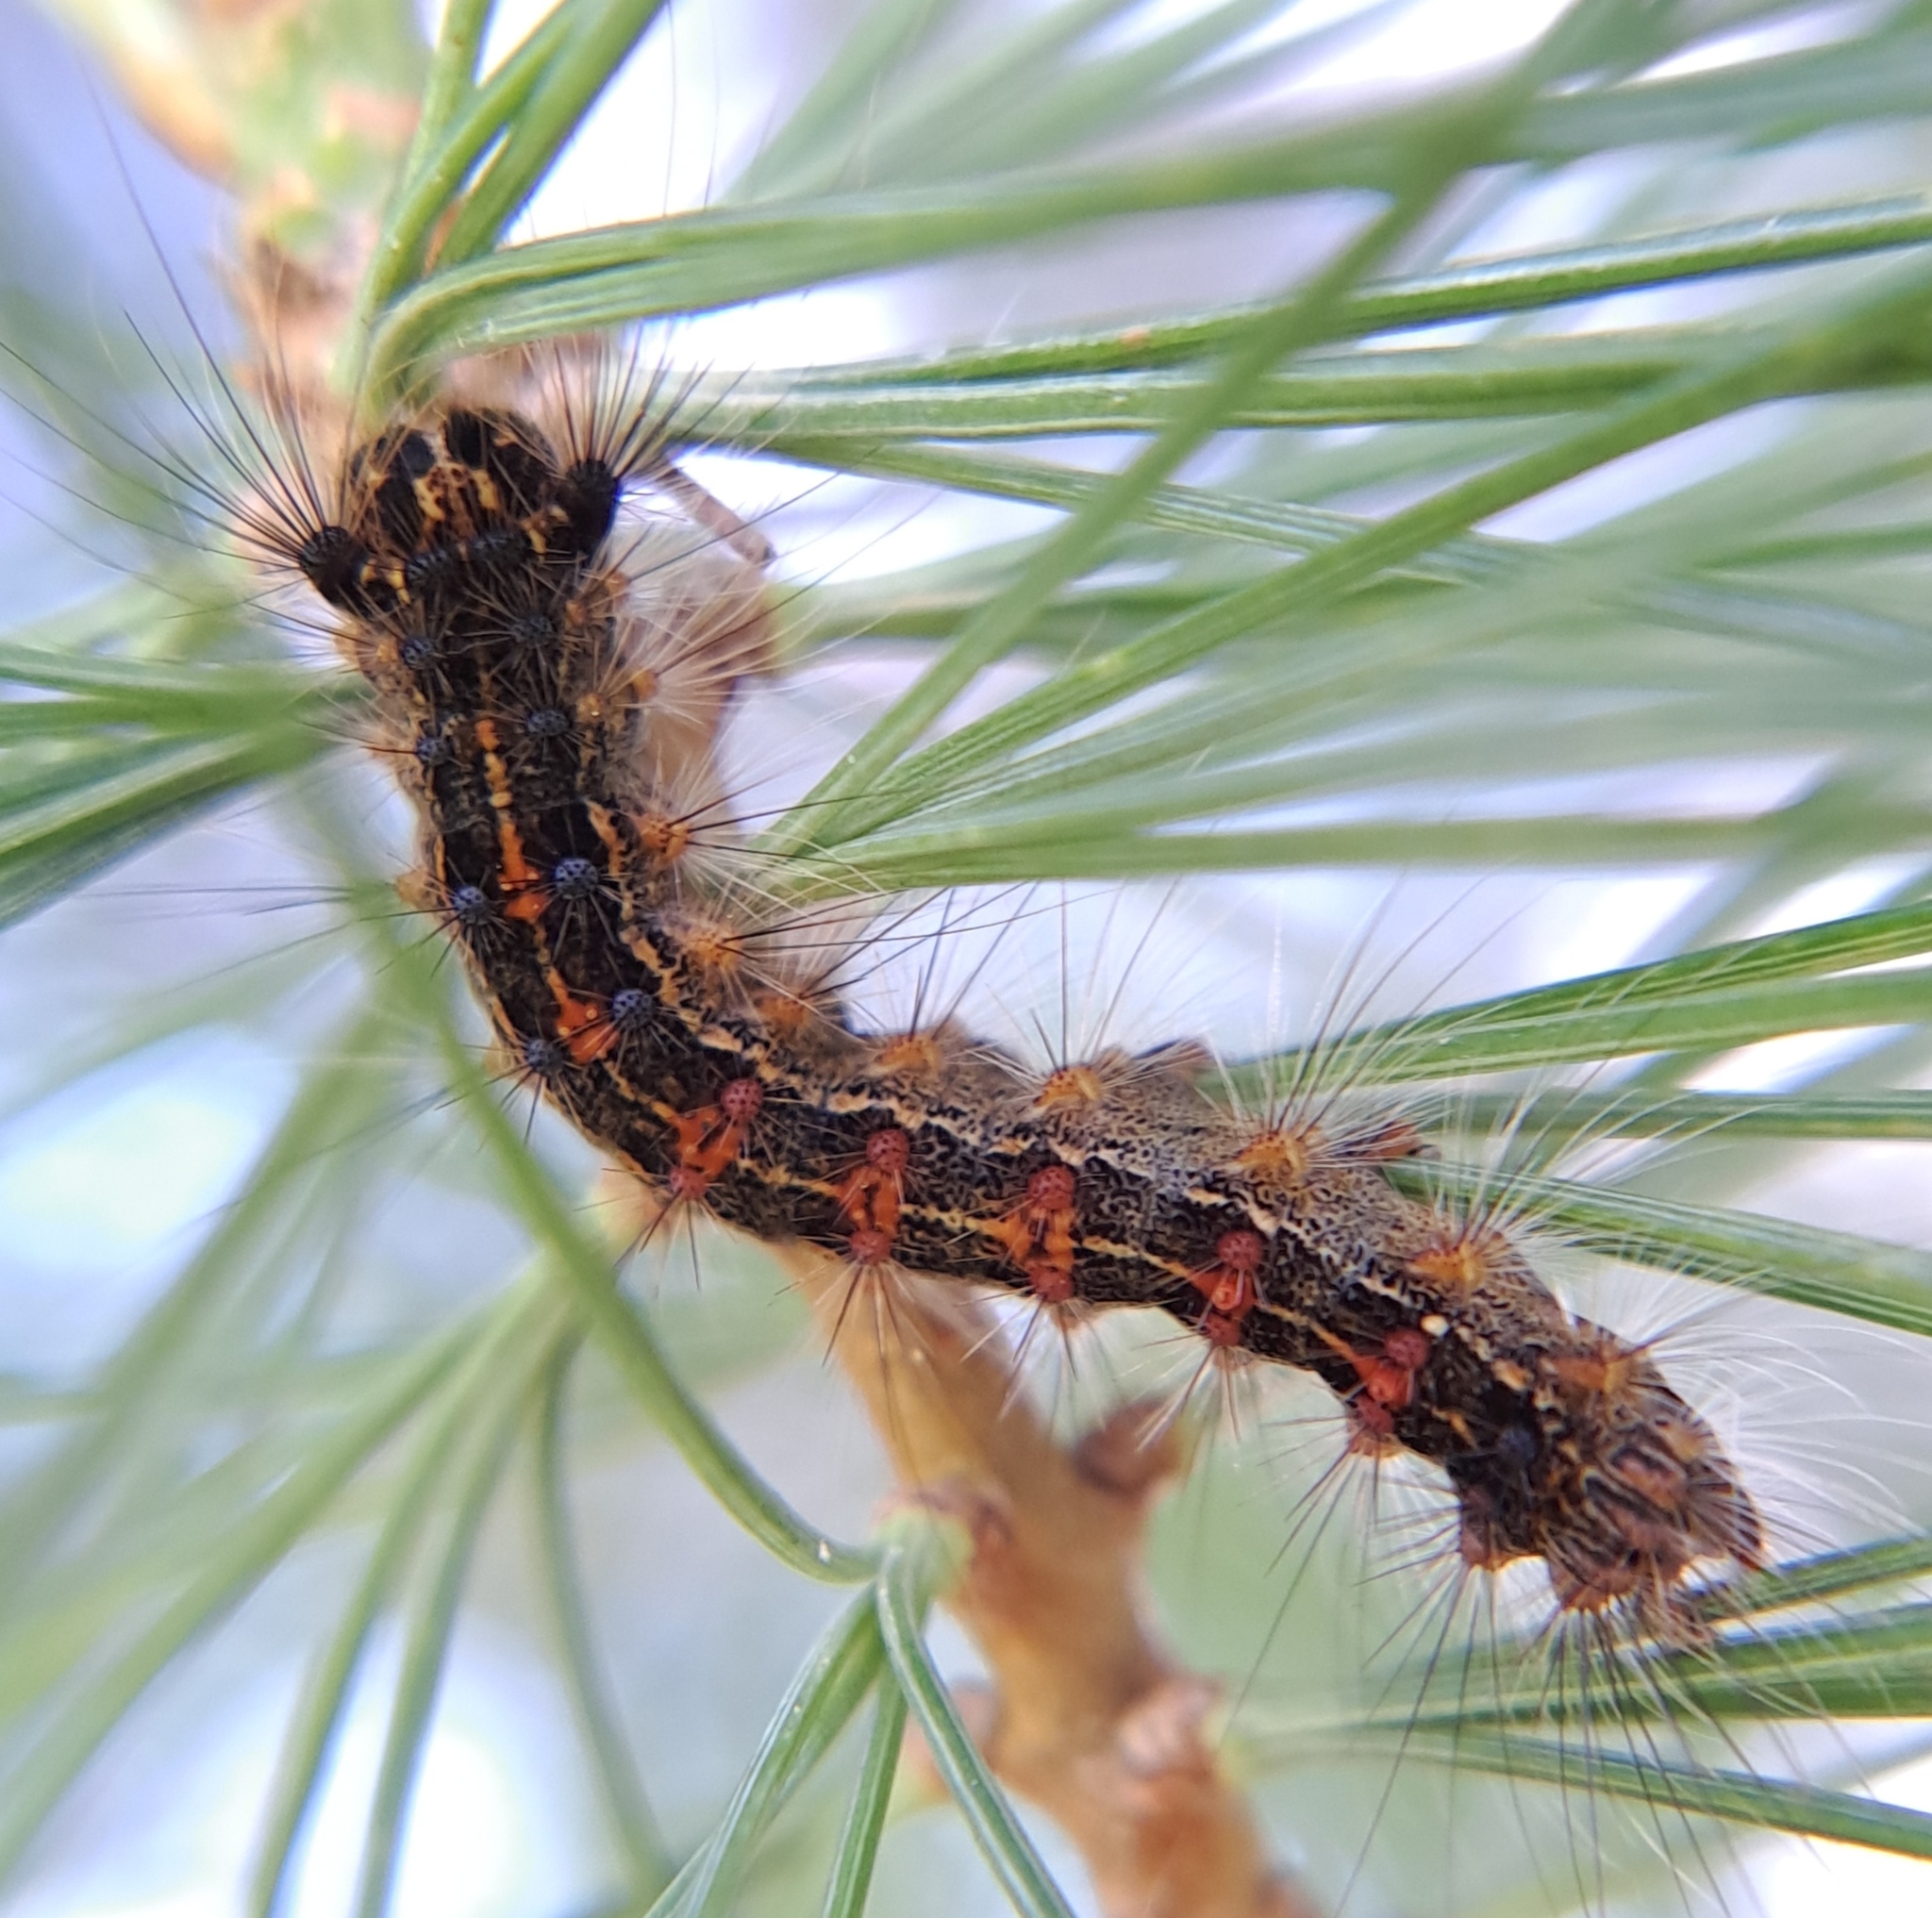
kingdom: Animalia
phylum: Arthropoda
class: Insecta
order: Lepidoptera
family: Erebidae
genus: Lymantria
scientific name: Lymantria dispar
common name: Gypsy moth
